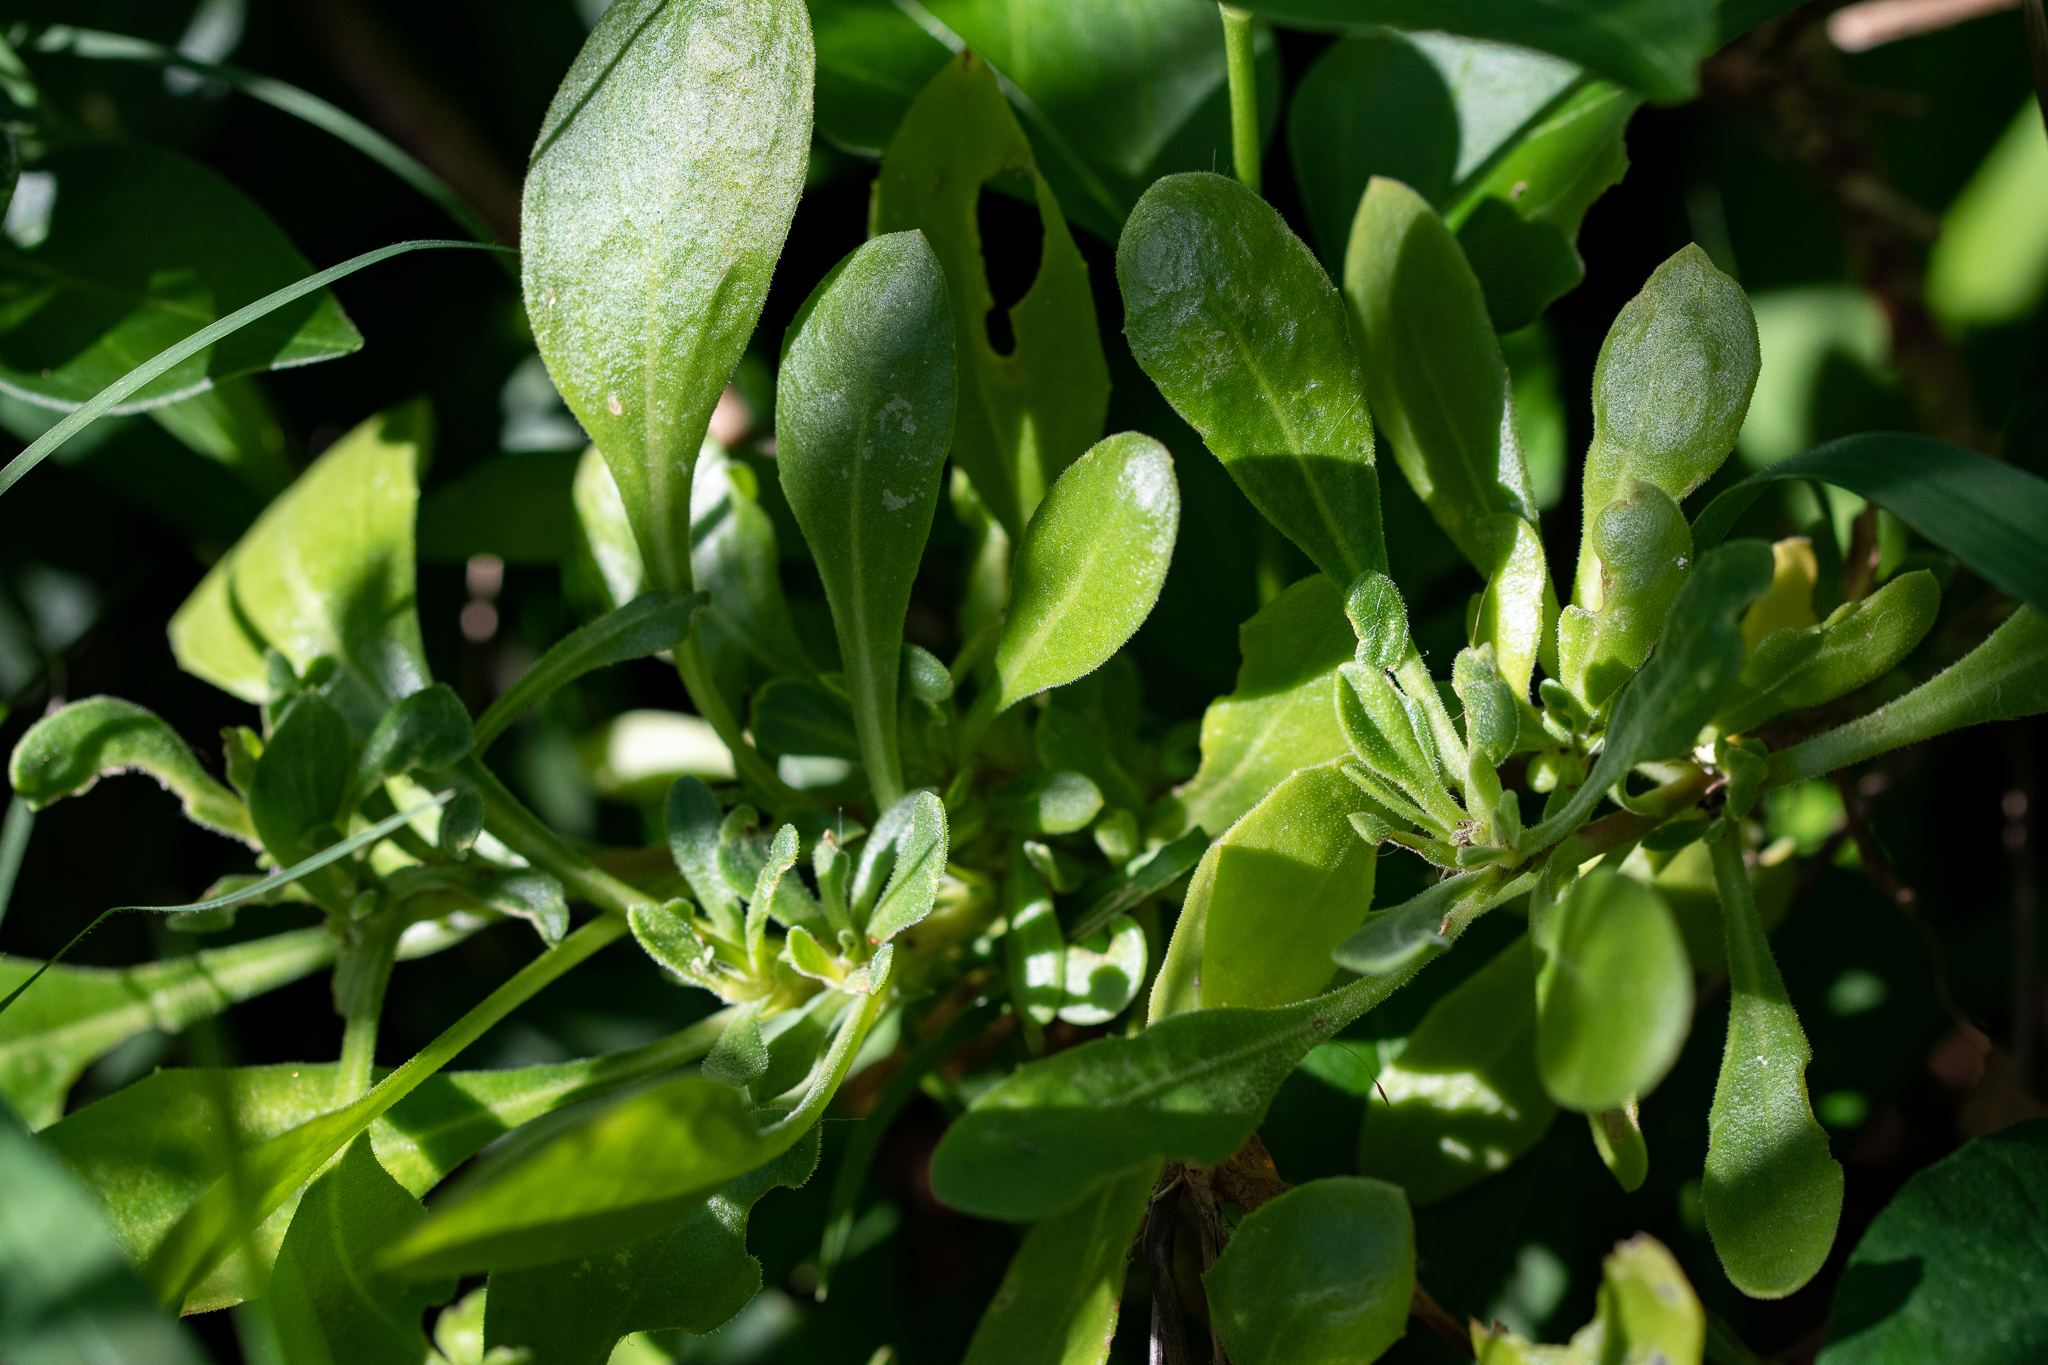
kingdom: Plantae
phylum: Tracheophyta
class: Magnoliopsida
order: Asterales
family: Asteraceae
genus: Dimorphotheca
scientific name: Dimorphotheca fruticosa
